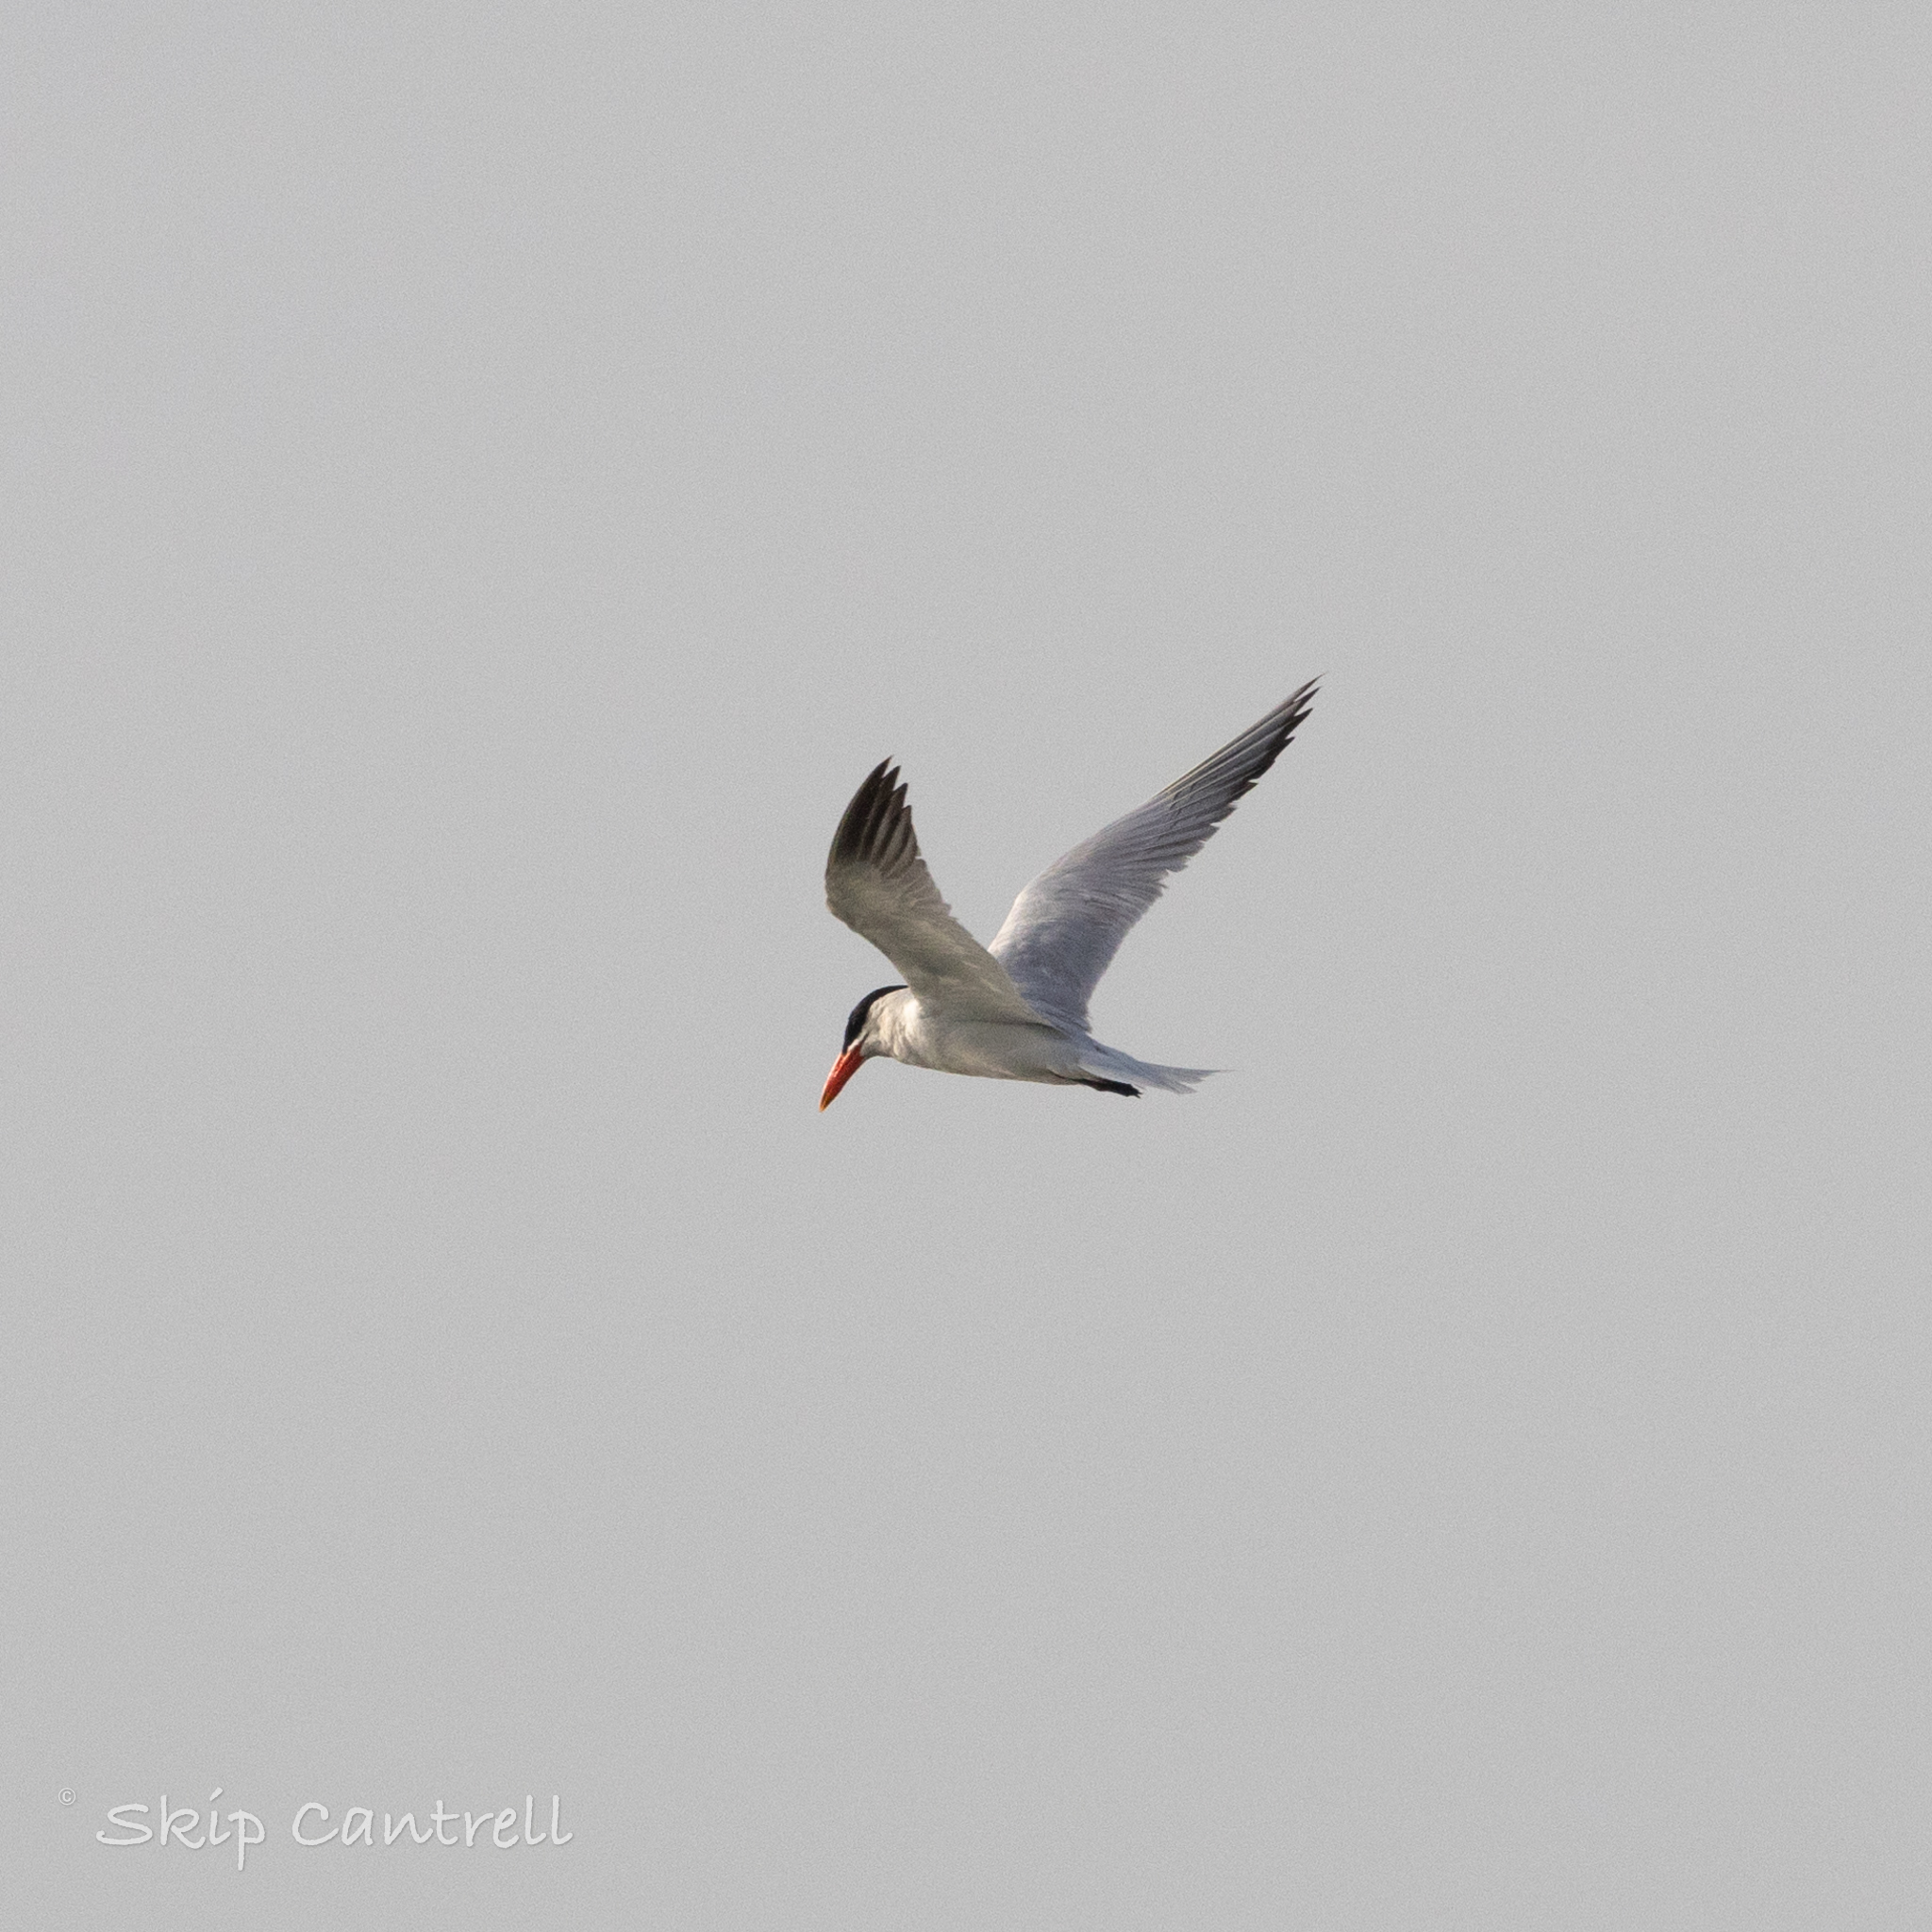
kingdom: Animalia
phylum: Chordata
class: Aves
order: Charadriiformes
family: Laridae
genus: Hydroprogne
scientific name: Hydroprogne caspia
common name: Caspian tern
